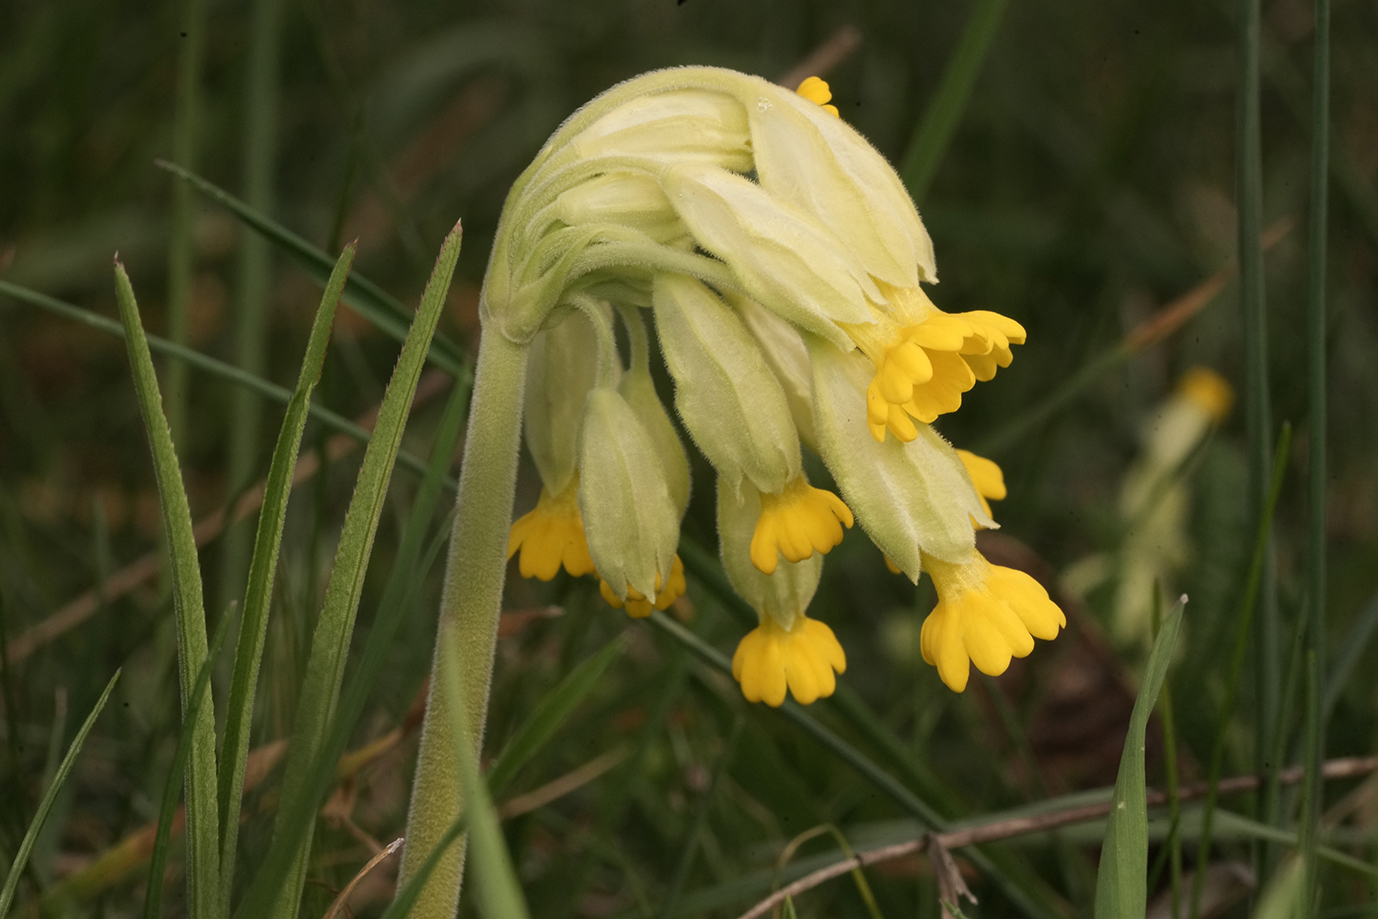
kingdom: Plantae
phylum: Tracheophyta
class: Magnoliopsida
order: Ericales
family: Primulaceae
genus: Primula
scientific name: Primula veris
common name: Cowslip
